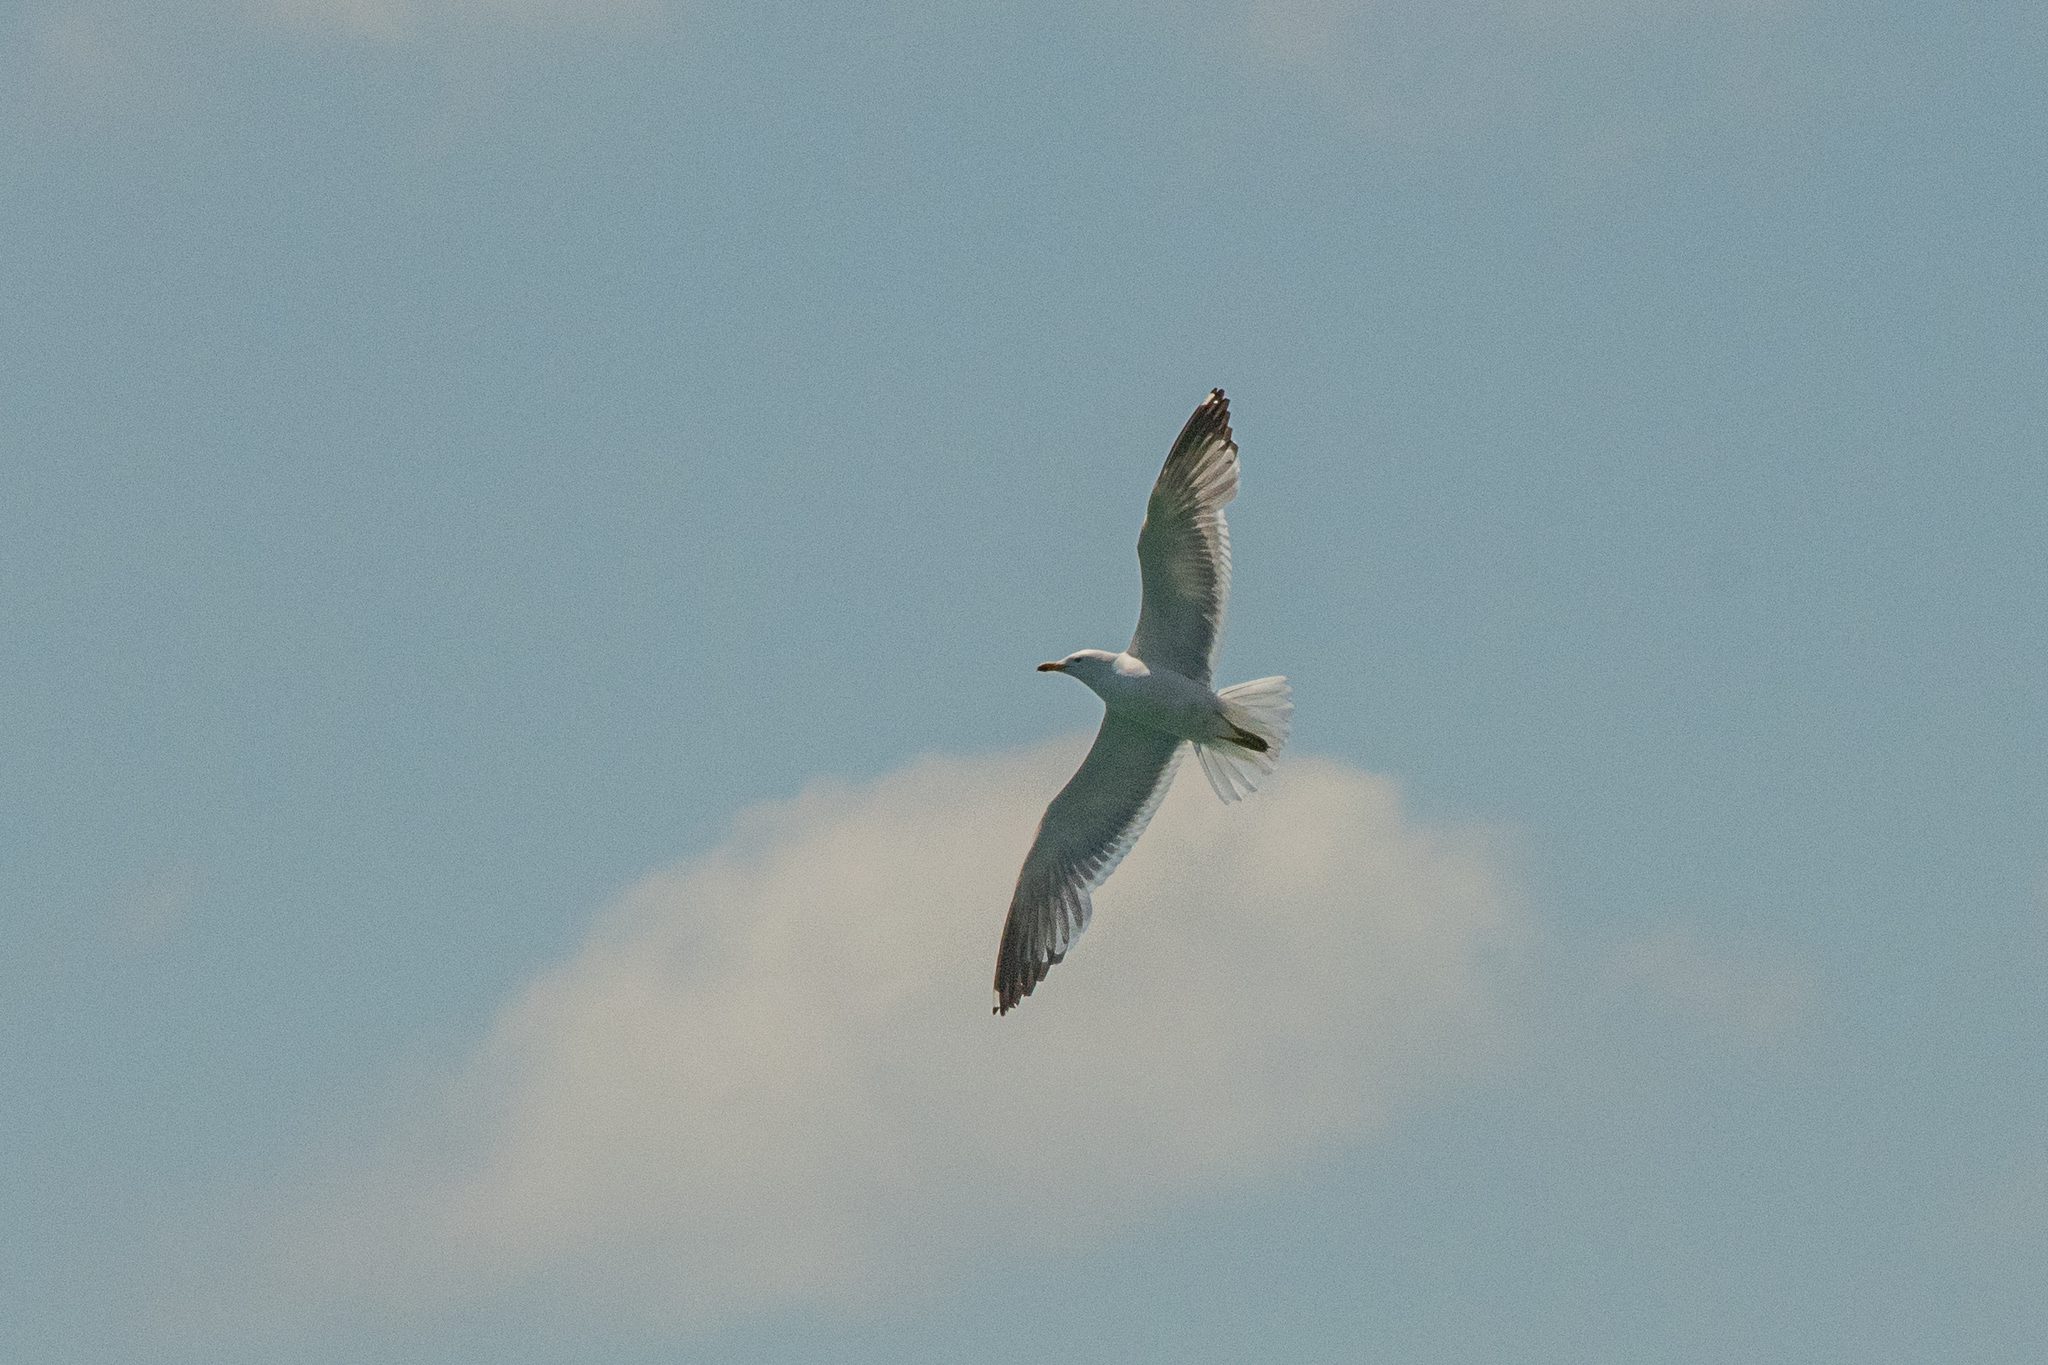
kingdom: Animalia
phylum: Chordata
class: Aves
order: Charadriiformes
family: Laridae
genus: Larus
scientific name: Larus armenicus
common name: Armenian gull
